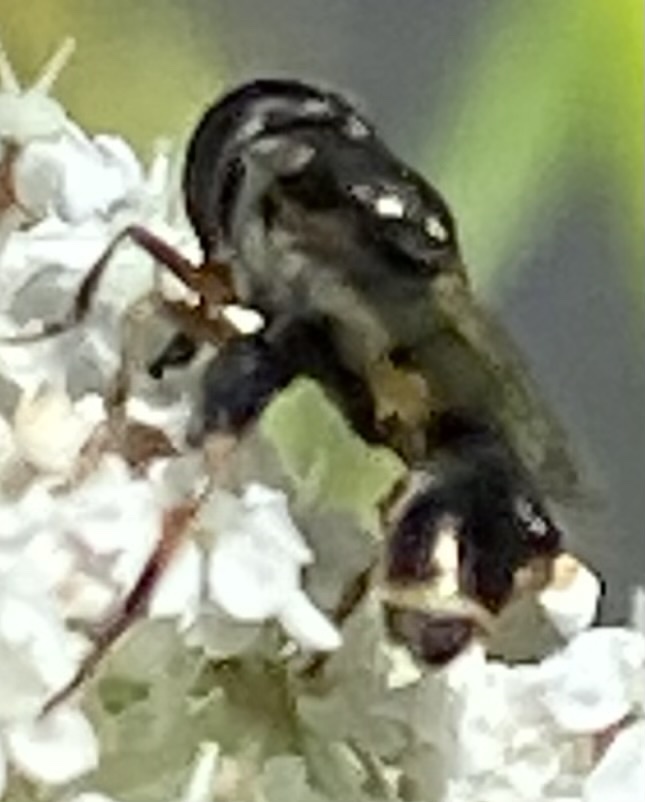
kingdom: Animalia
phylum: Arthropoda
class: Insecta
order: Diptera
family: Syrphidae
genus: Syritta
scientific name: Syritta pipiens
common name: Hover fly
